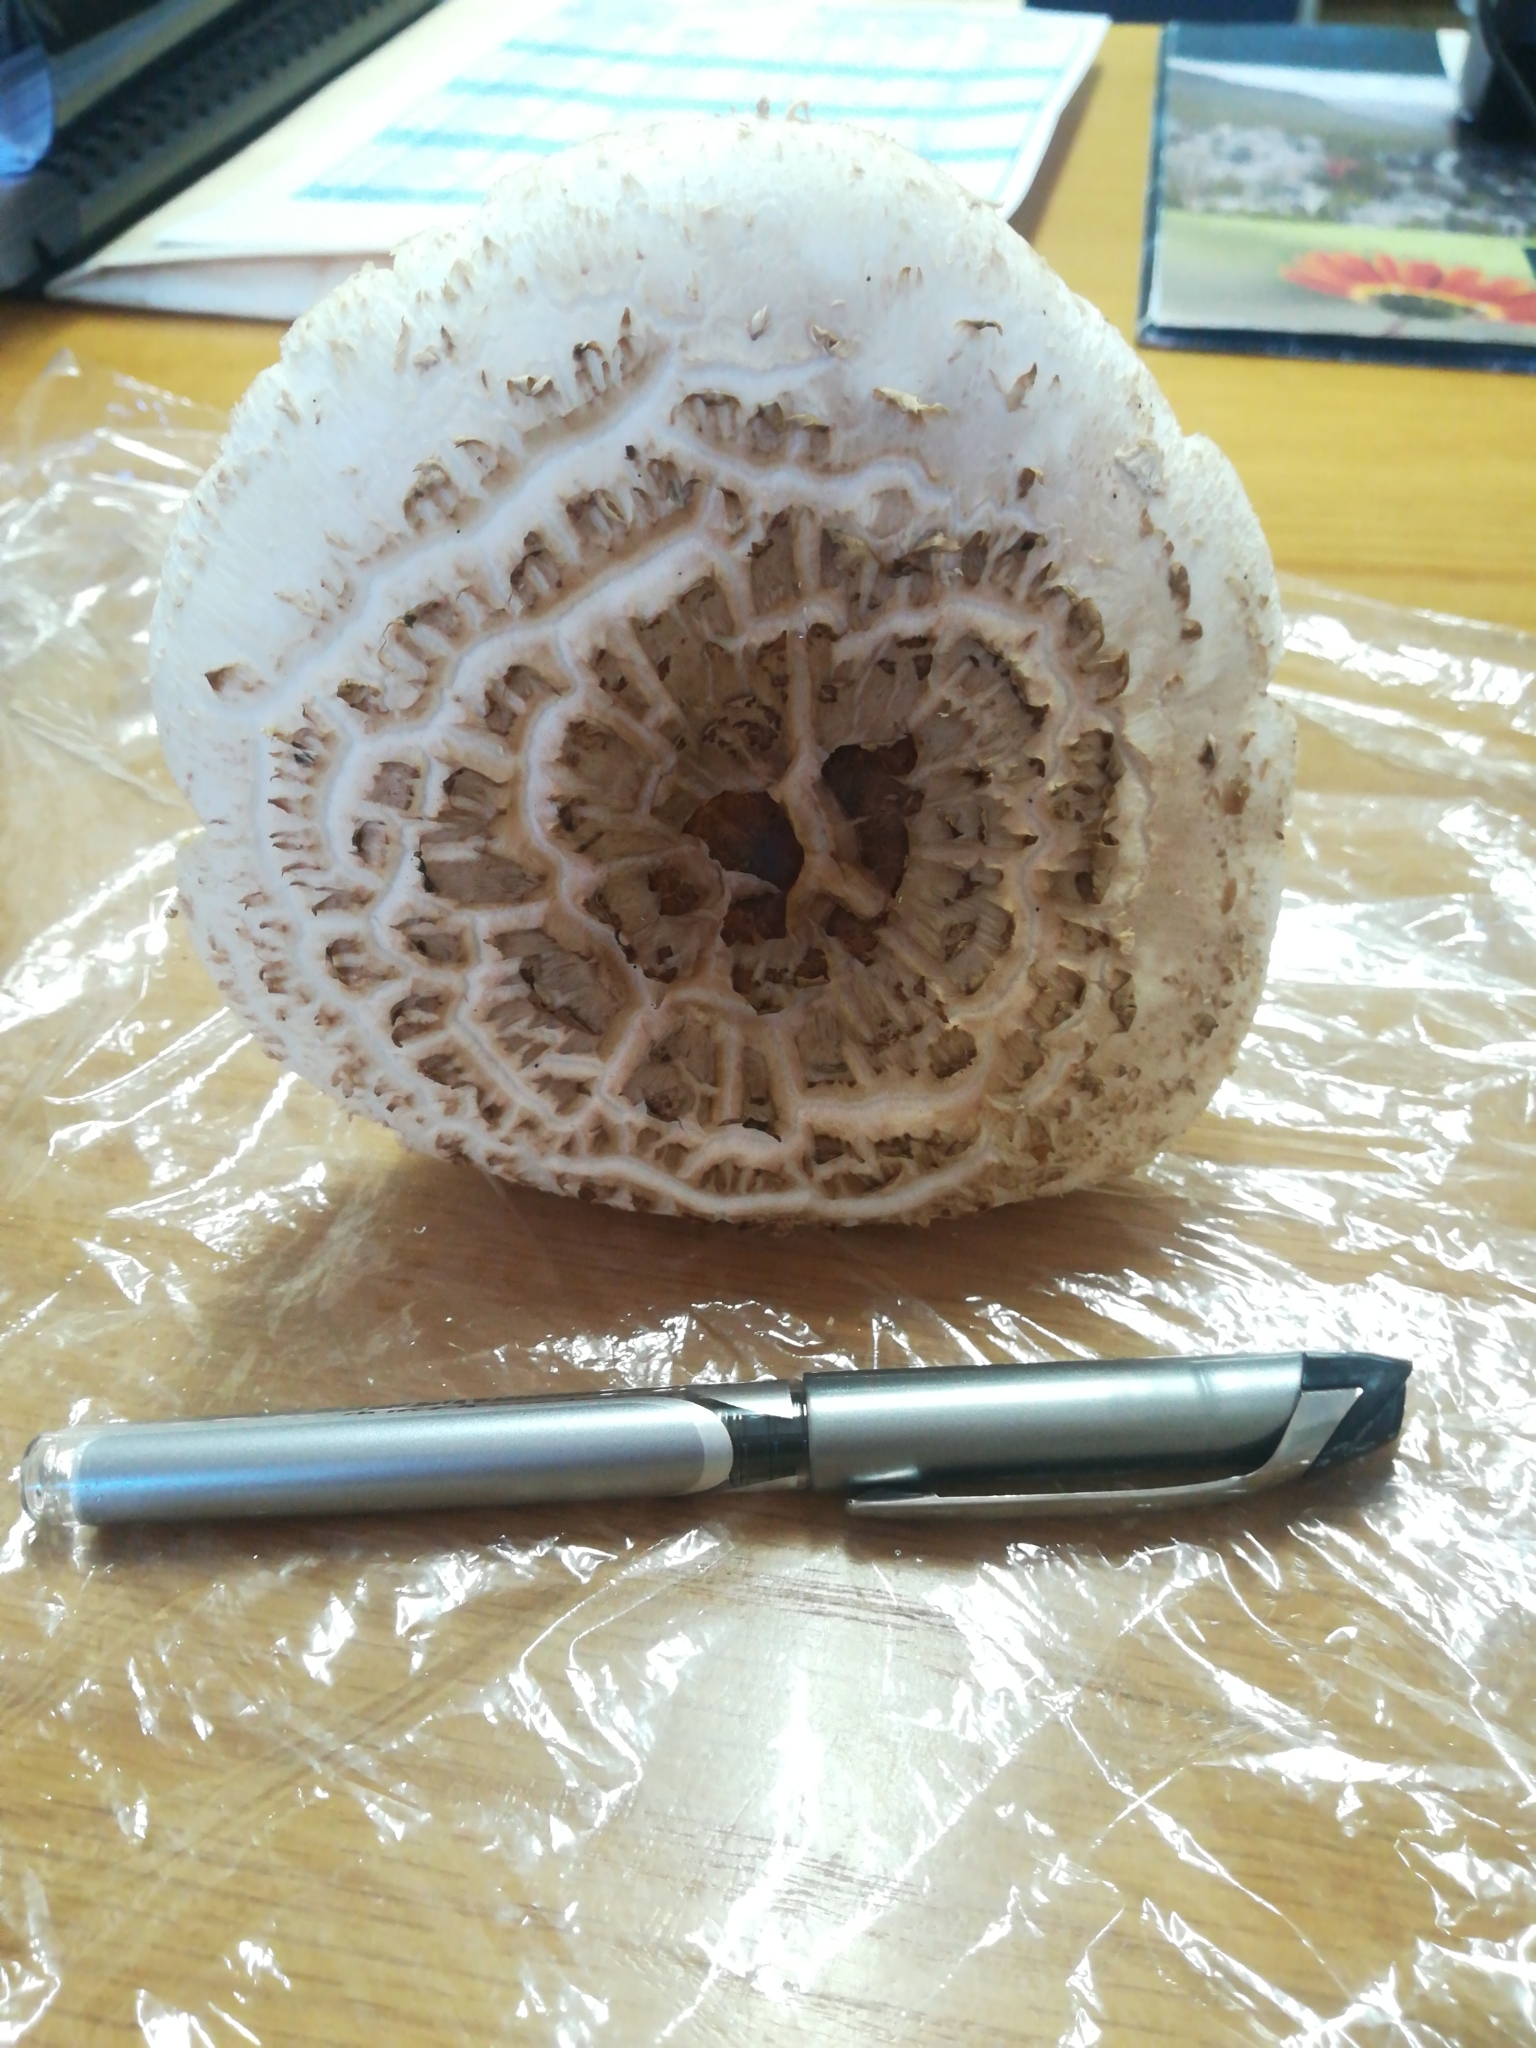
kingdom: Fungi
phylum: Basidiomycota
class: Agaricomycetes
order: Agaricales
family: Agaricaceae
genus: Chlorophyllum
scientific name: Chlorophyllum molybdites
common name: False parasol
